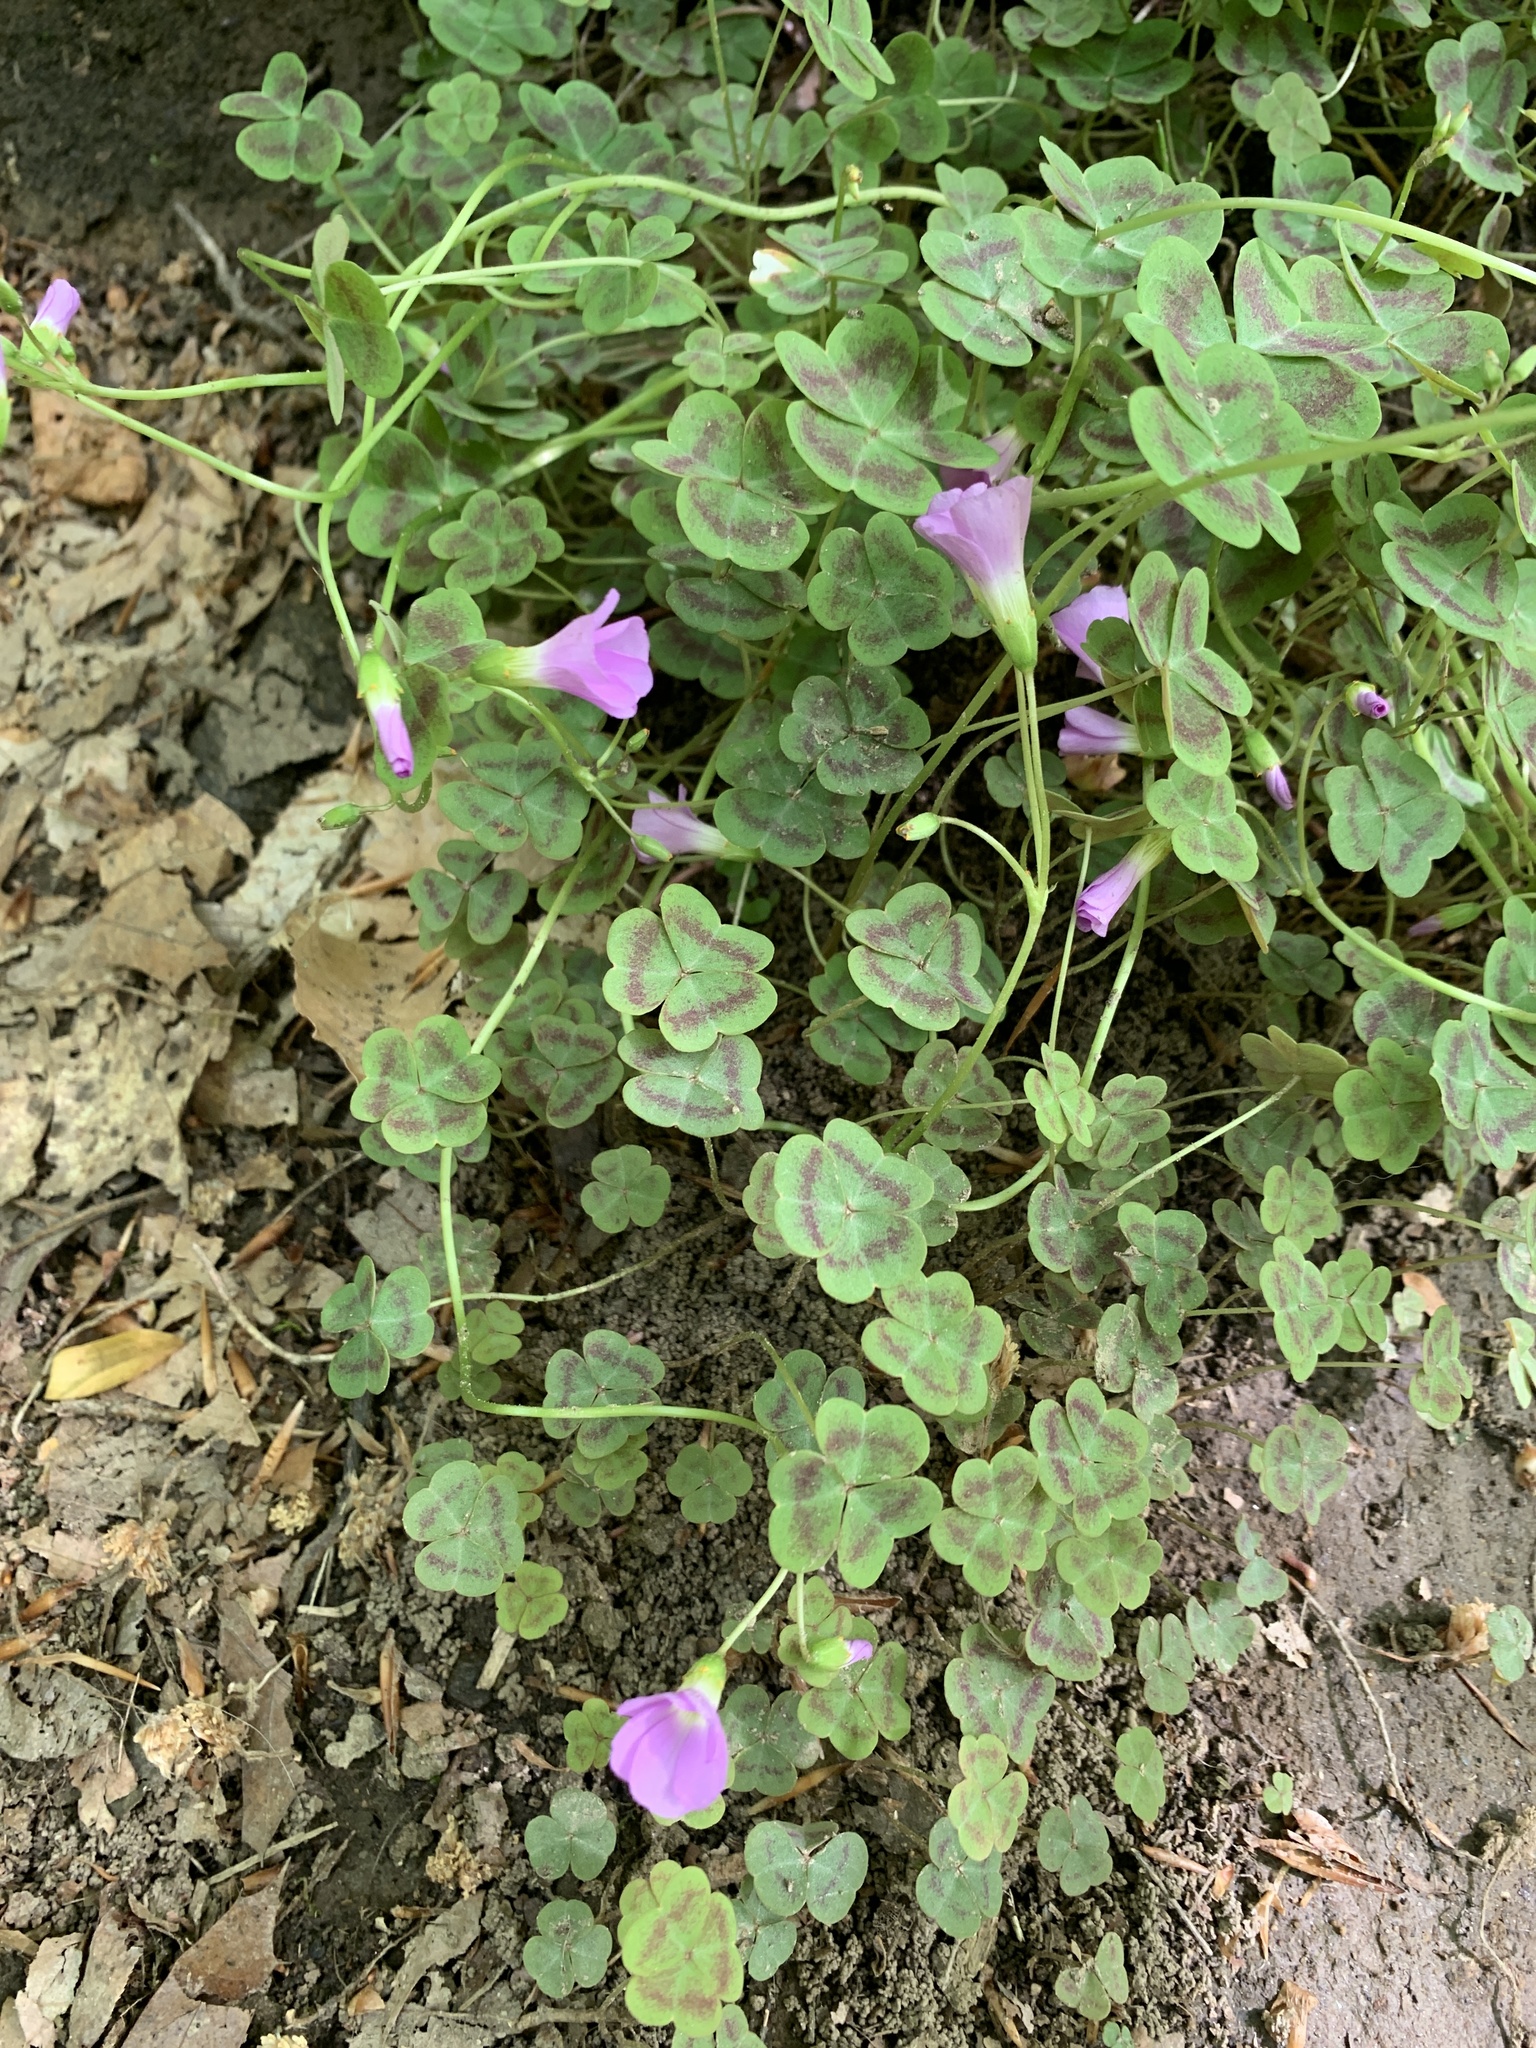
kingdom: Plantae
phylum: Tracheophyta
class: Magnoliopsida
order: Oxalidales
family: Oxalidaceae
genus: Oxalis
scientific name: Oxalis violacea
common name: Violet wood-sorrel
